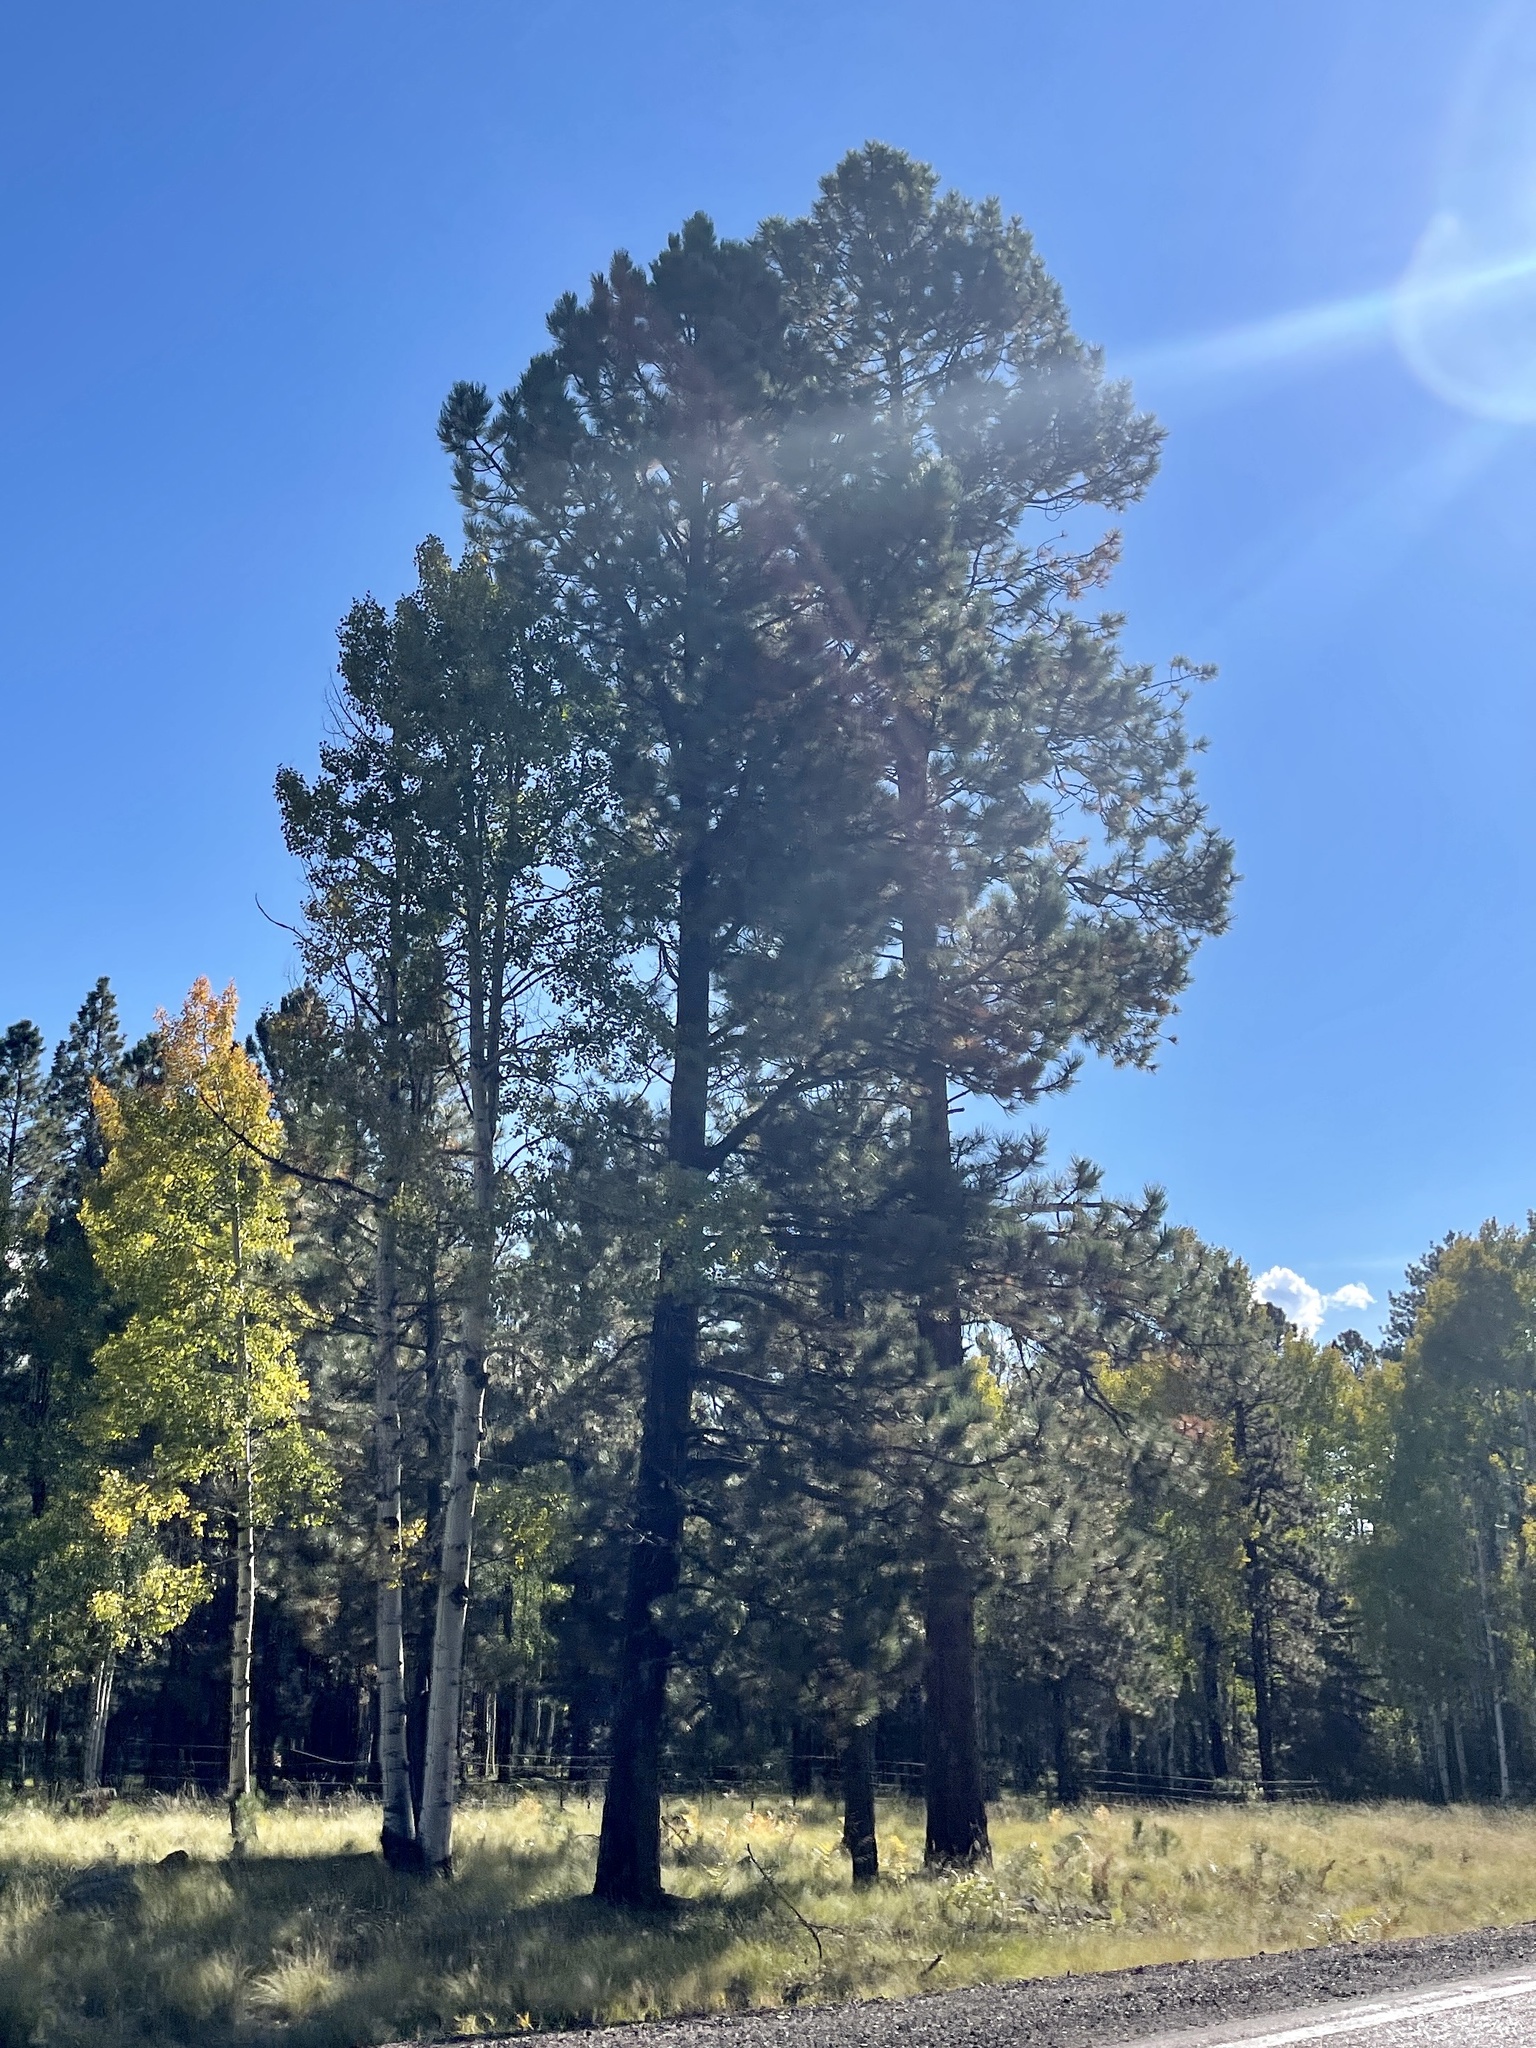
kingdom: Plantae
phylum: Tracheophyta
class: Pinopsida
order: Pinales
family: Pinaceae
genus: Pinus
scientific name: Pinus ponderosa
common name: Western yellow-pine
